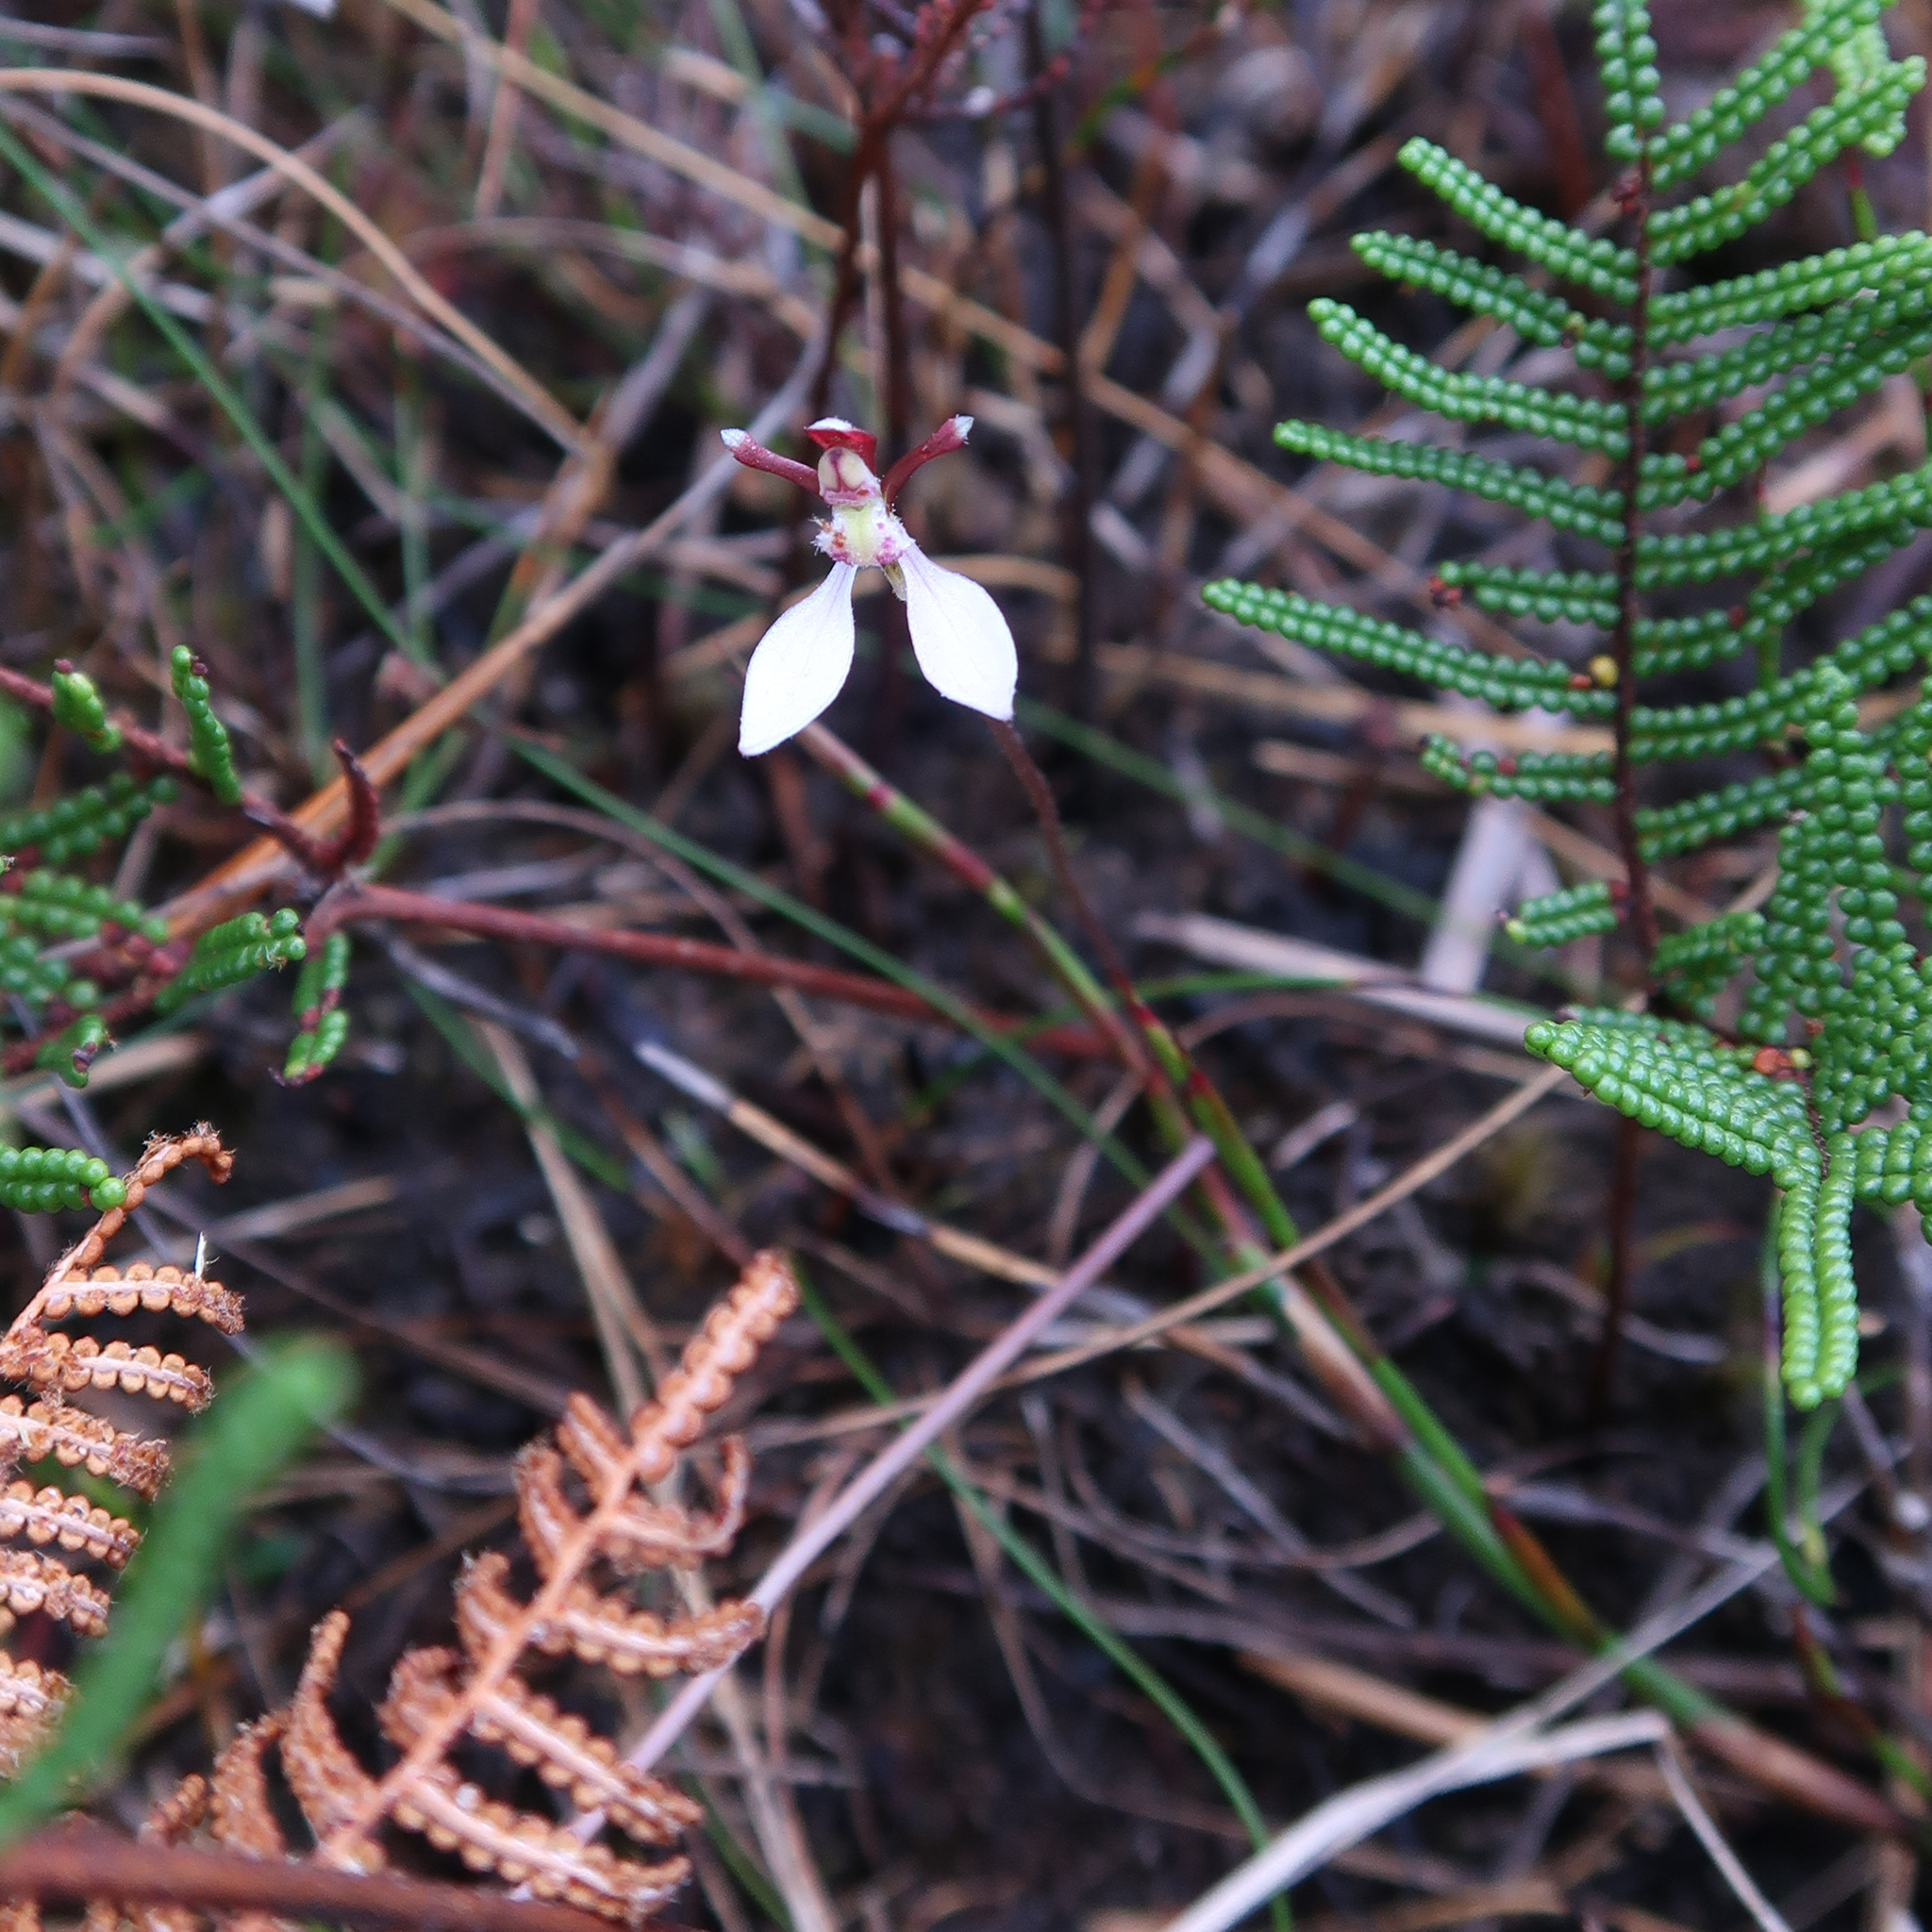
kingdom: Plantae
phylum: Tracheophyta
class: Liliopsida
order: Asparagales
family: Orchidaceae
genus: Eriochilus
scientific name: Eriochilus cucullatus
